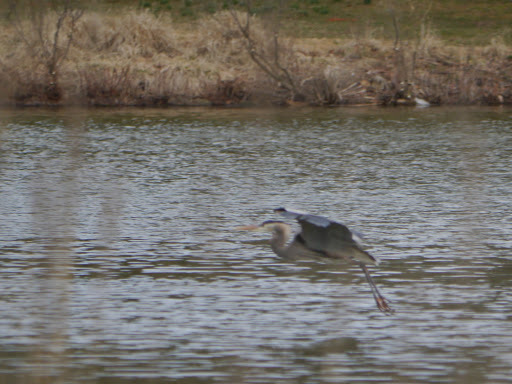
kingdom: Animalia
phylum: Chordata
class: Aves
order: Pelecaniformes
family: Ardeidae
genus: Ardea
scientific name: Ardea herodias
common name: Great blue heron
